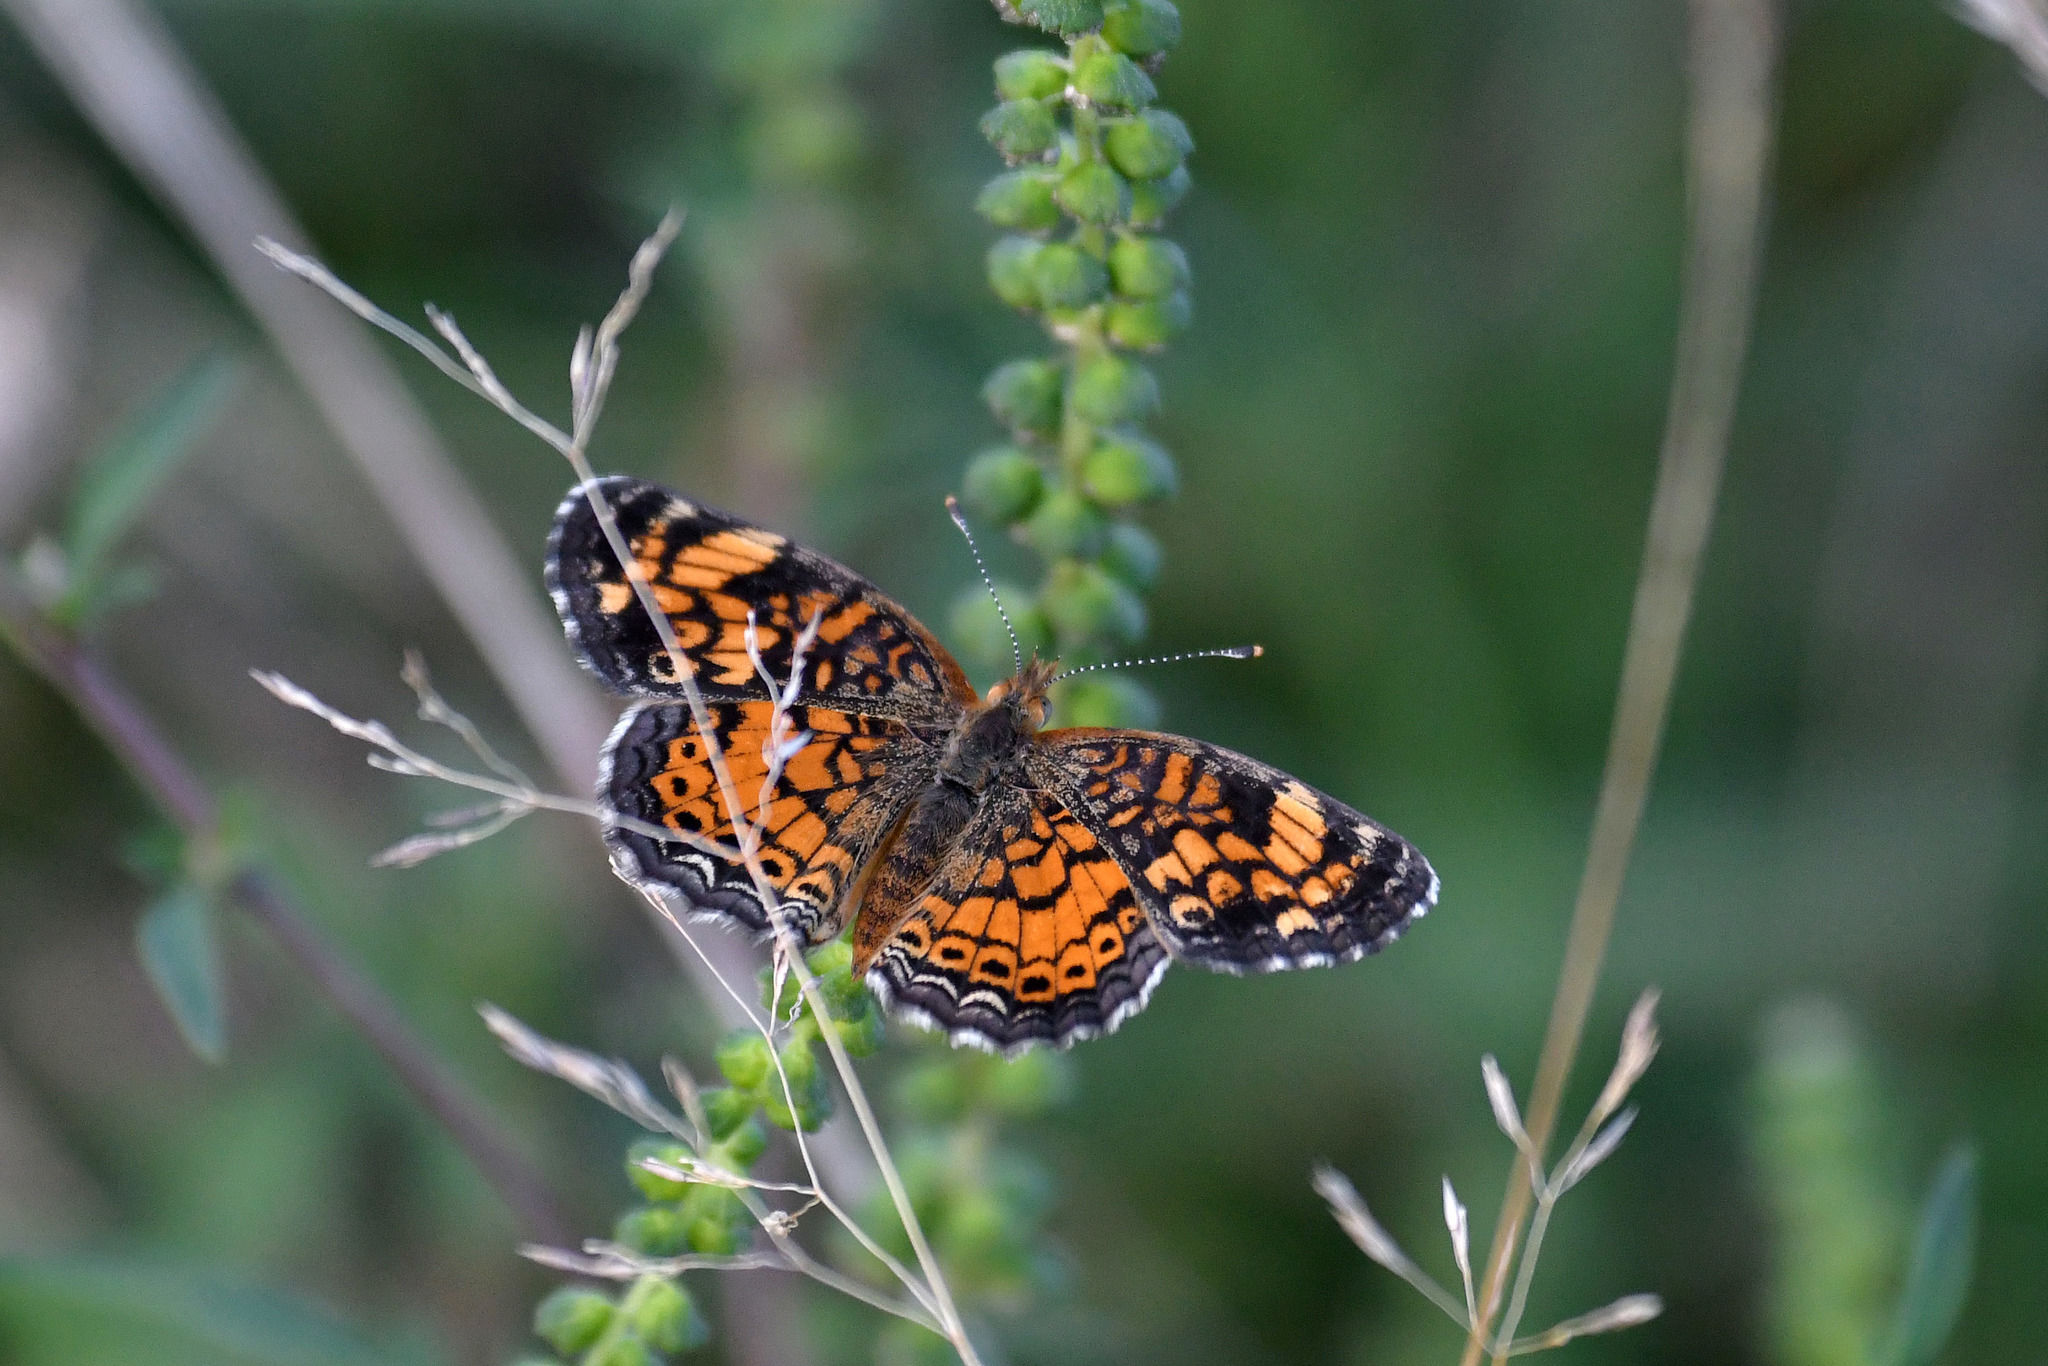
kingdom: Animalia
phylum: Arthropoda
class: Insecta
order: Lepidoptera
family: Nymphalidae
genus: Phyciodes
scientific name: Phyciodes tharos
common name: Pearl crescent
